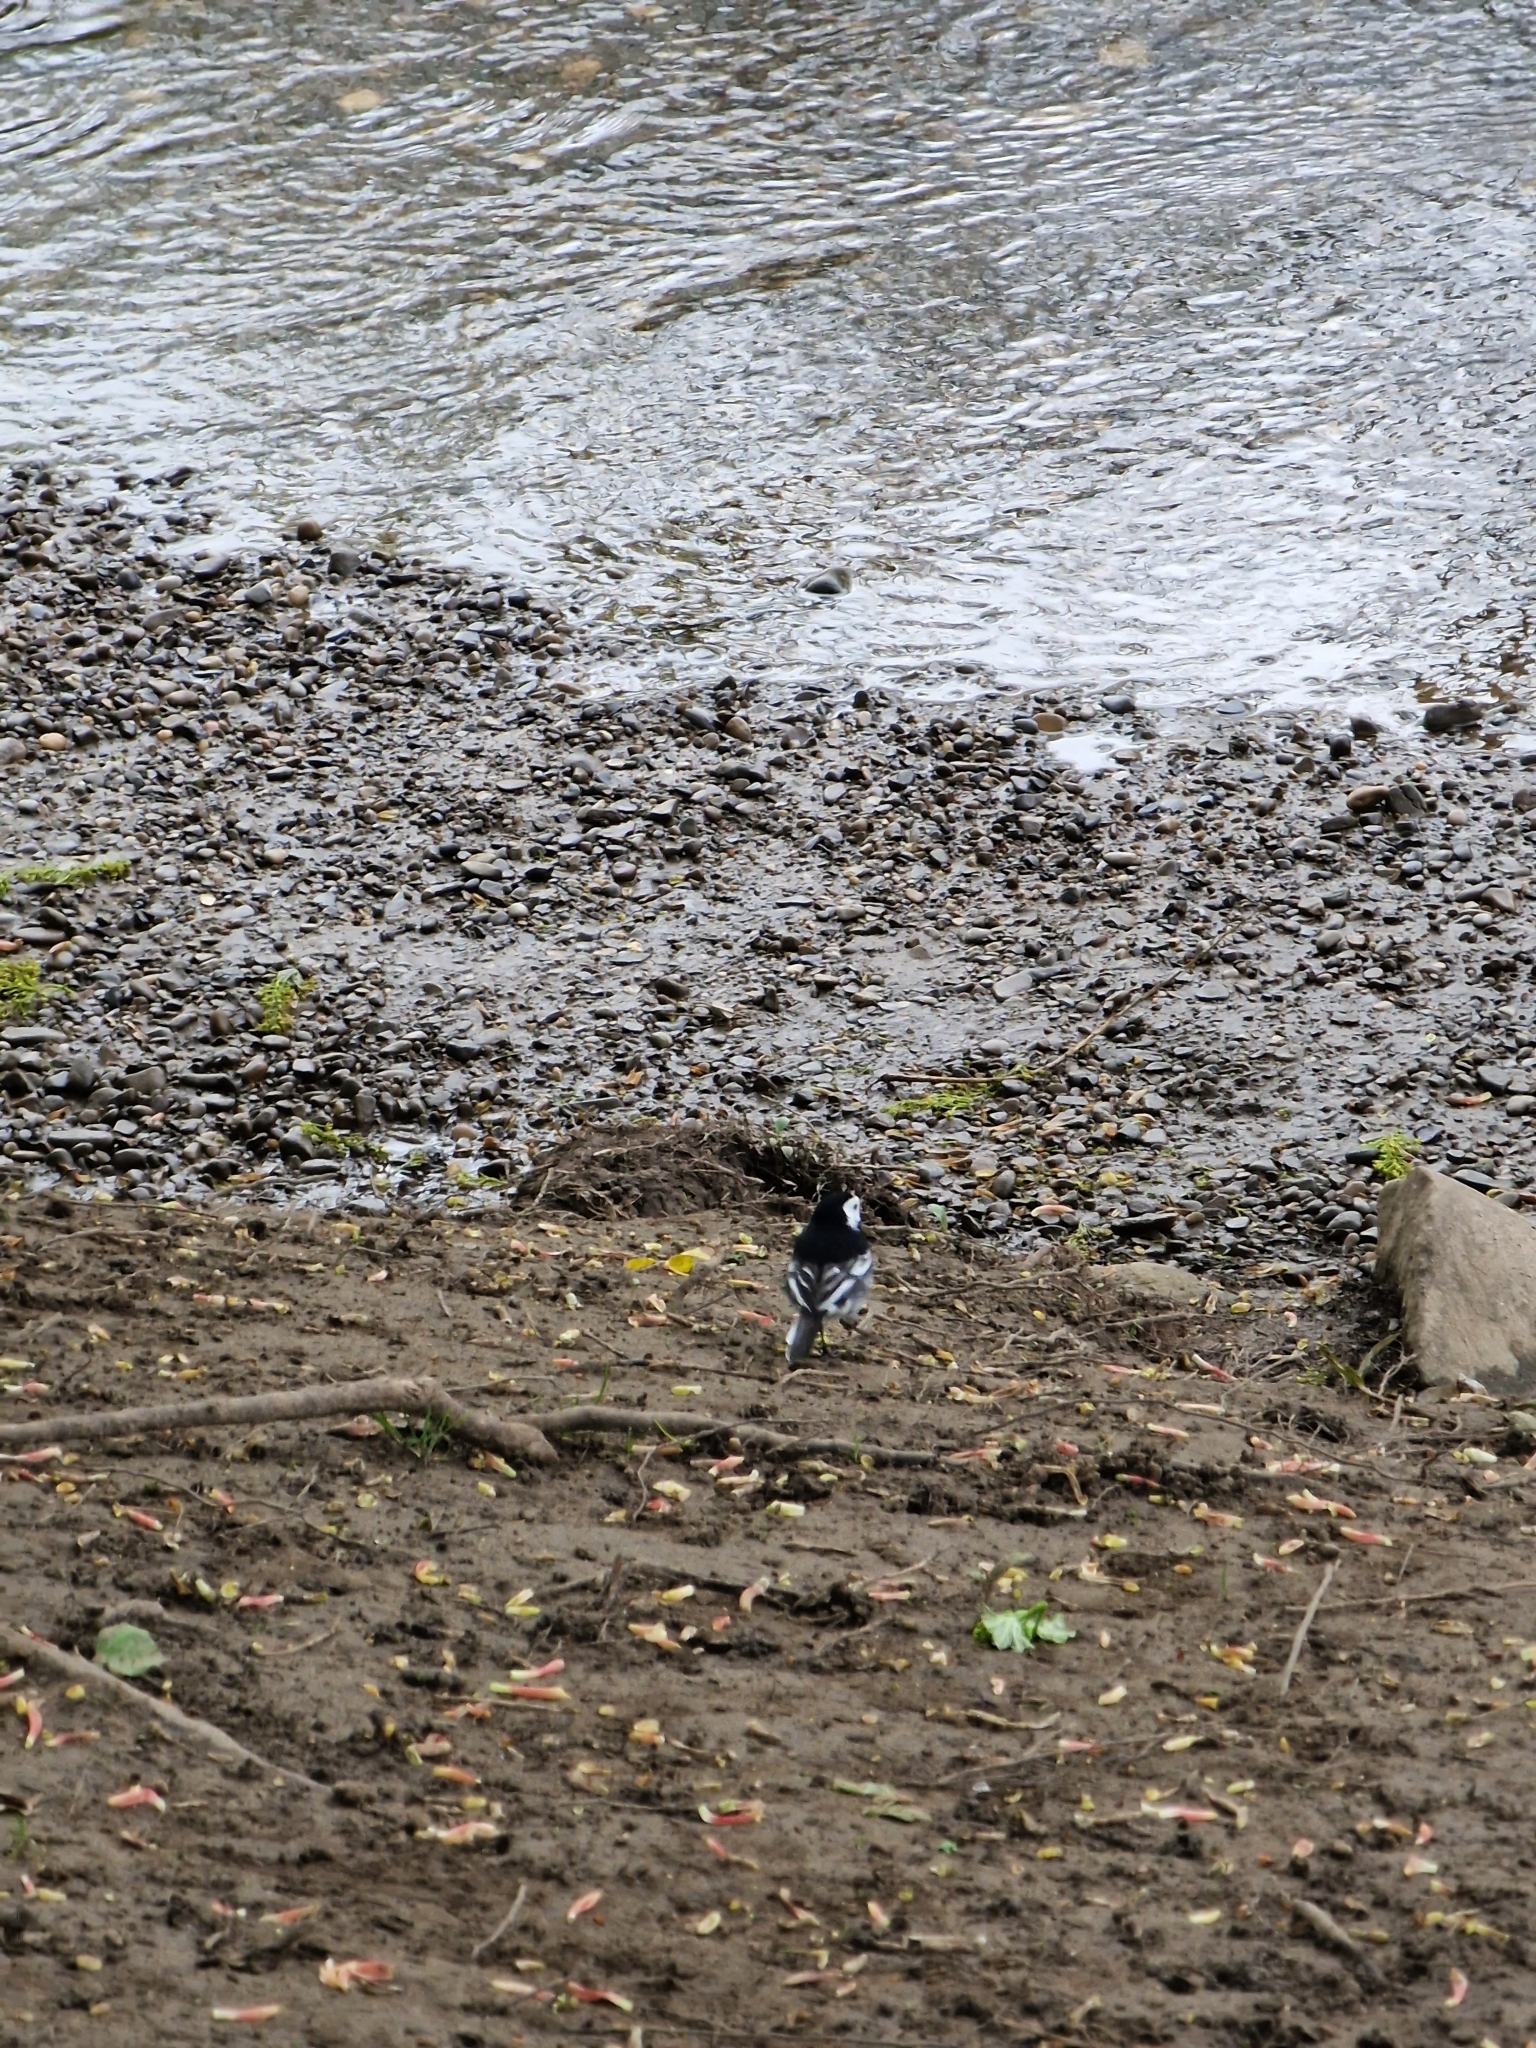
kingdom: Animalia
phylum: Chordata
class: Aves
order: Passeriformes
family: Motacillidae
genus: Motacilla
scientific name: Motacilla alba
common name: White wagtail
